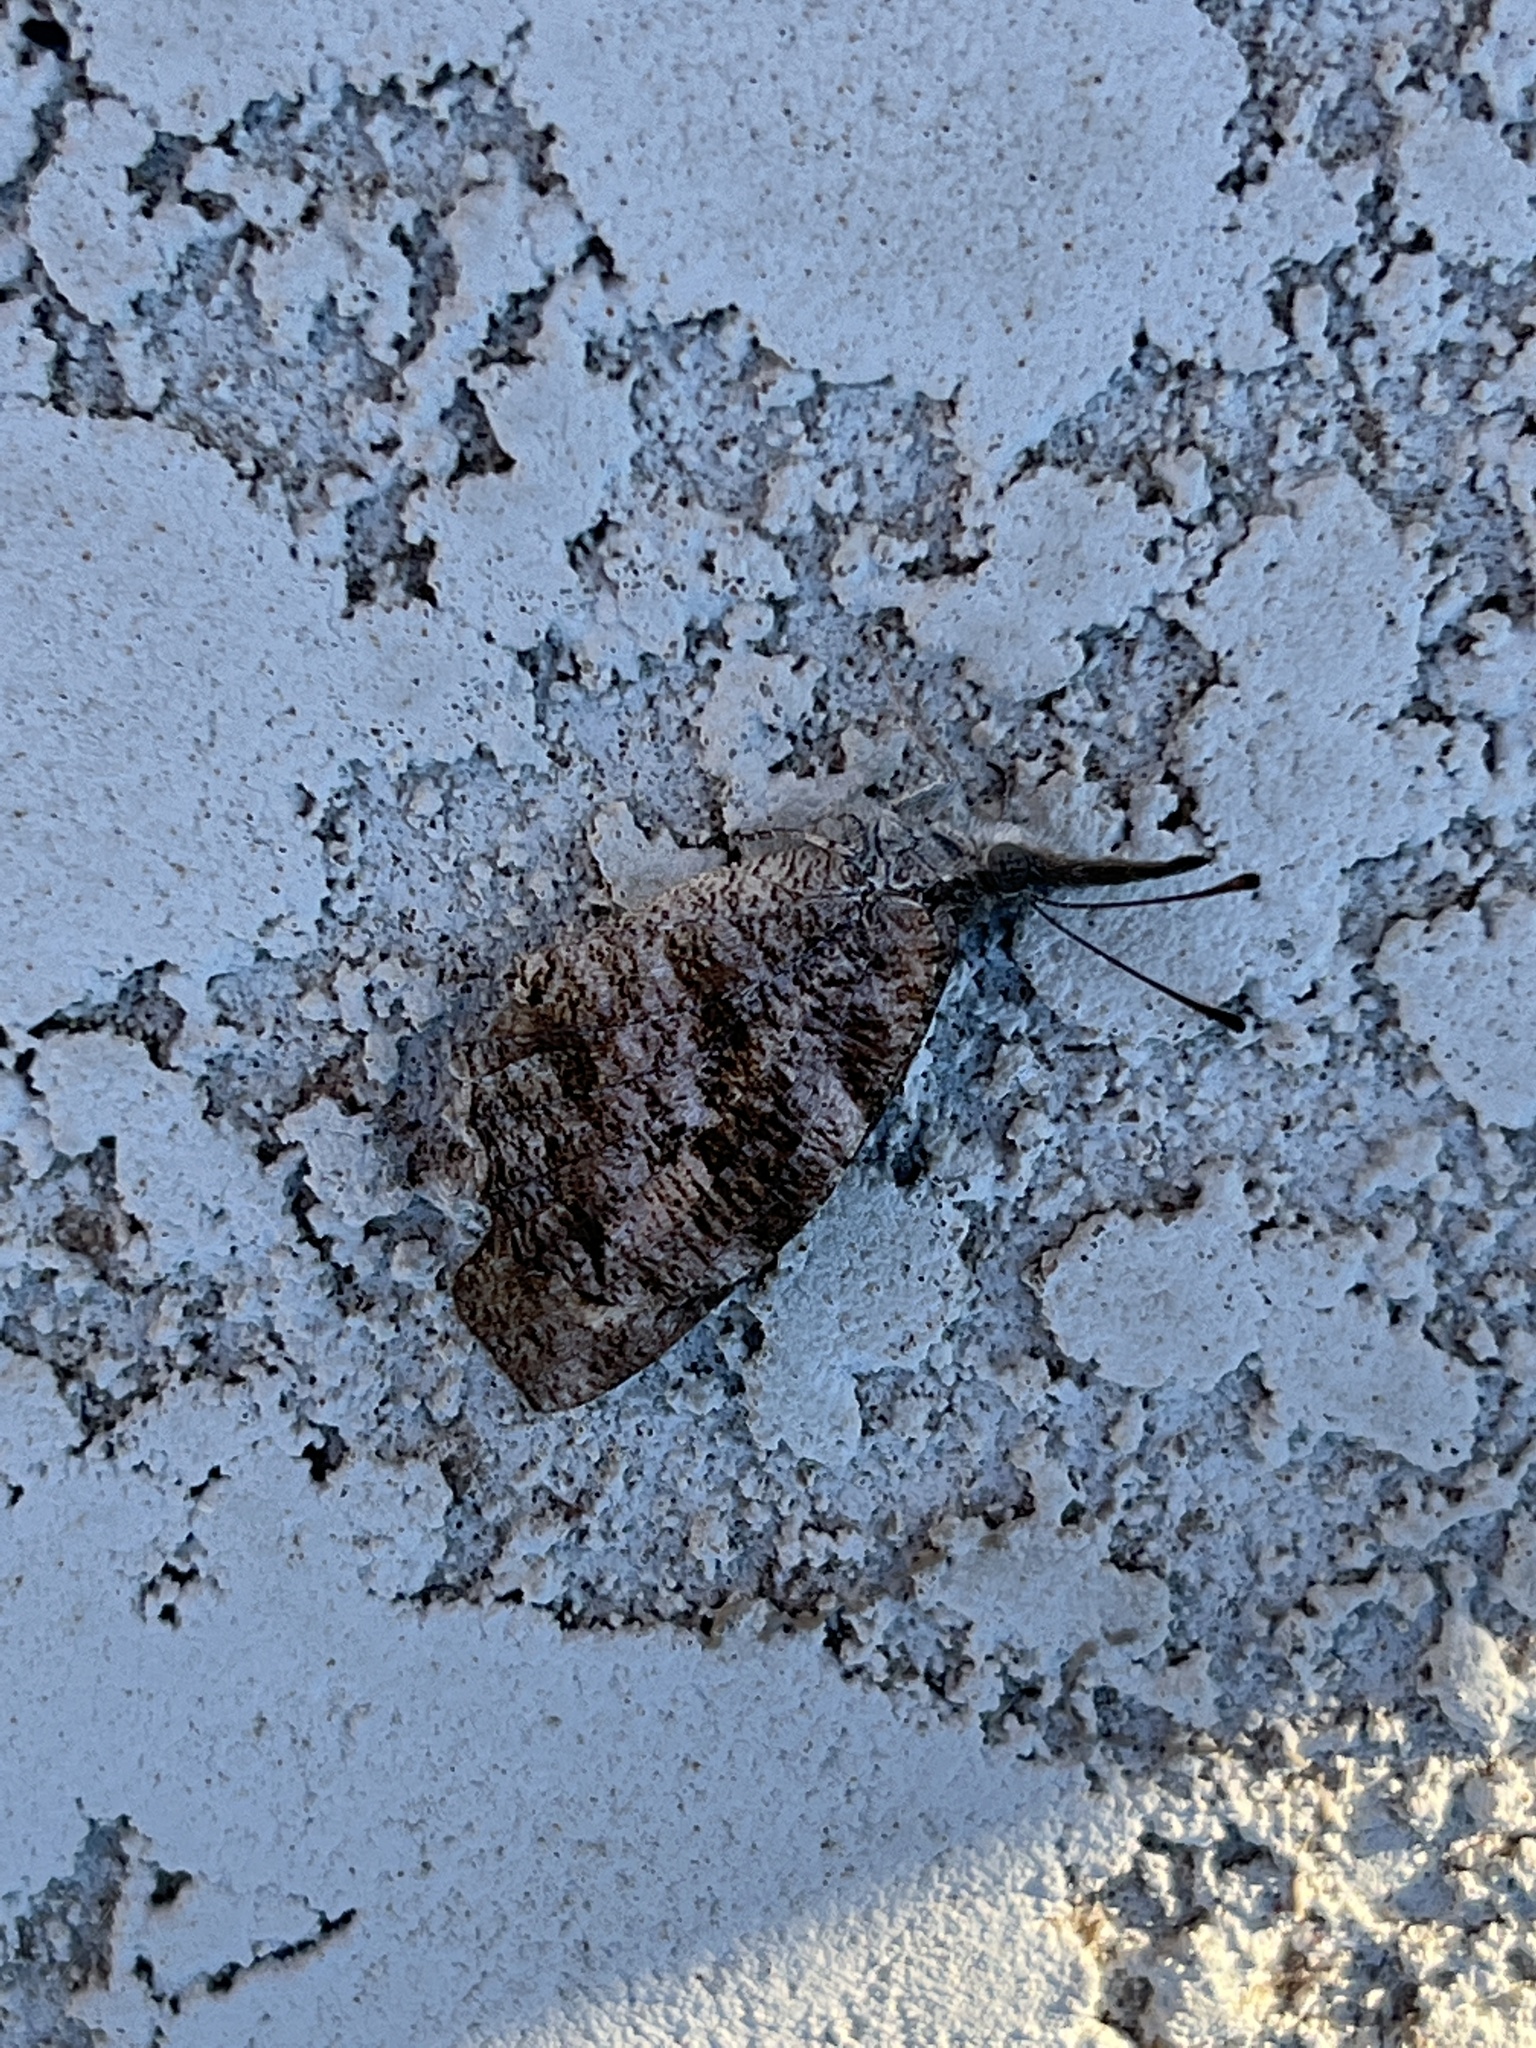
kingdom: Animalia
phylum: Arthropoda
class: Insecta
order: Lepidoptera
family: Nymphalidae
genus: Libytheana
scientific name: Libytheana carinenta
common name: American snout
